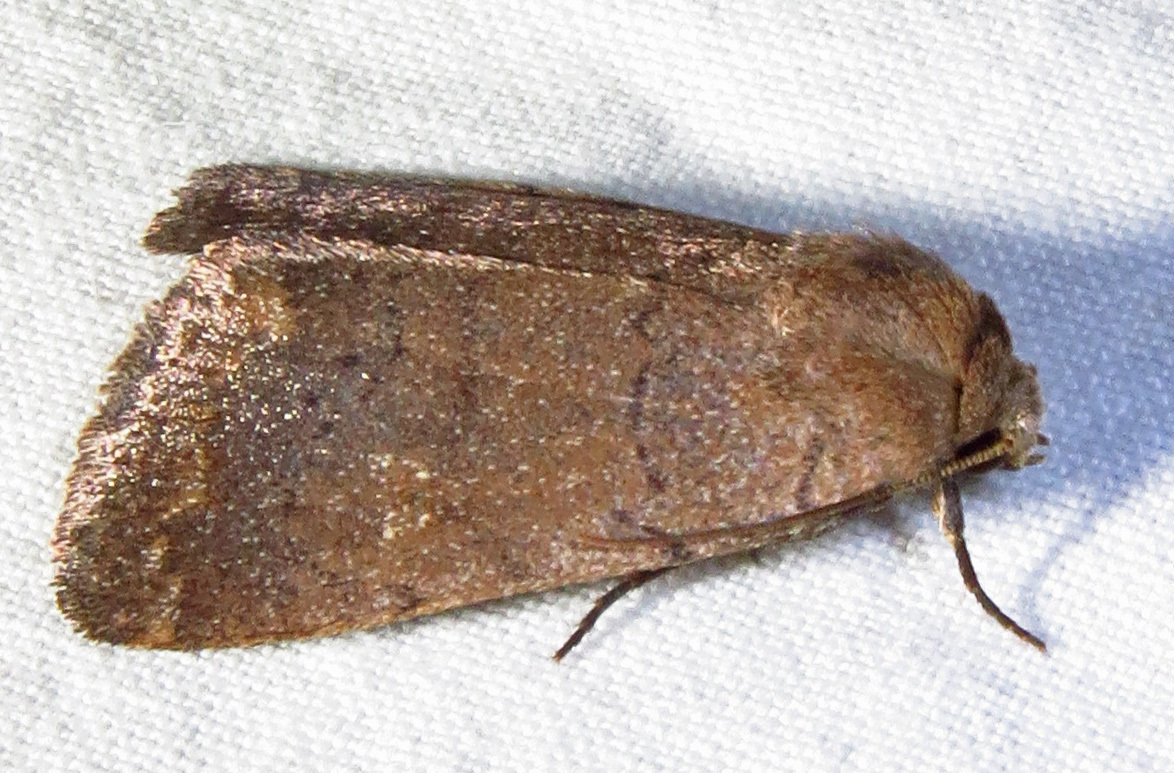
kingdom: Animalia
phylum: Arthropoda
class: Insecta
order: Lepidoptera
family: Noctuidae
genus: Athetis
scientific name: Athetis tarda
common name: Slowpoke moth
